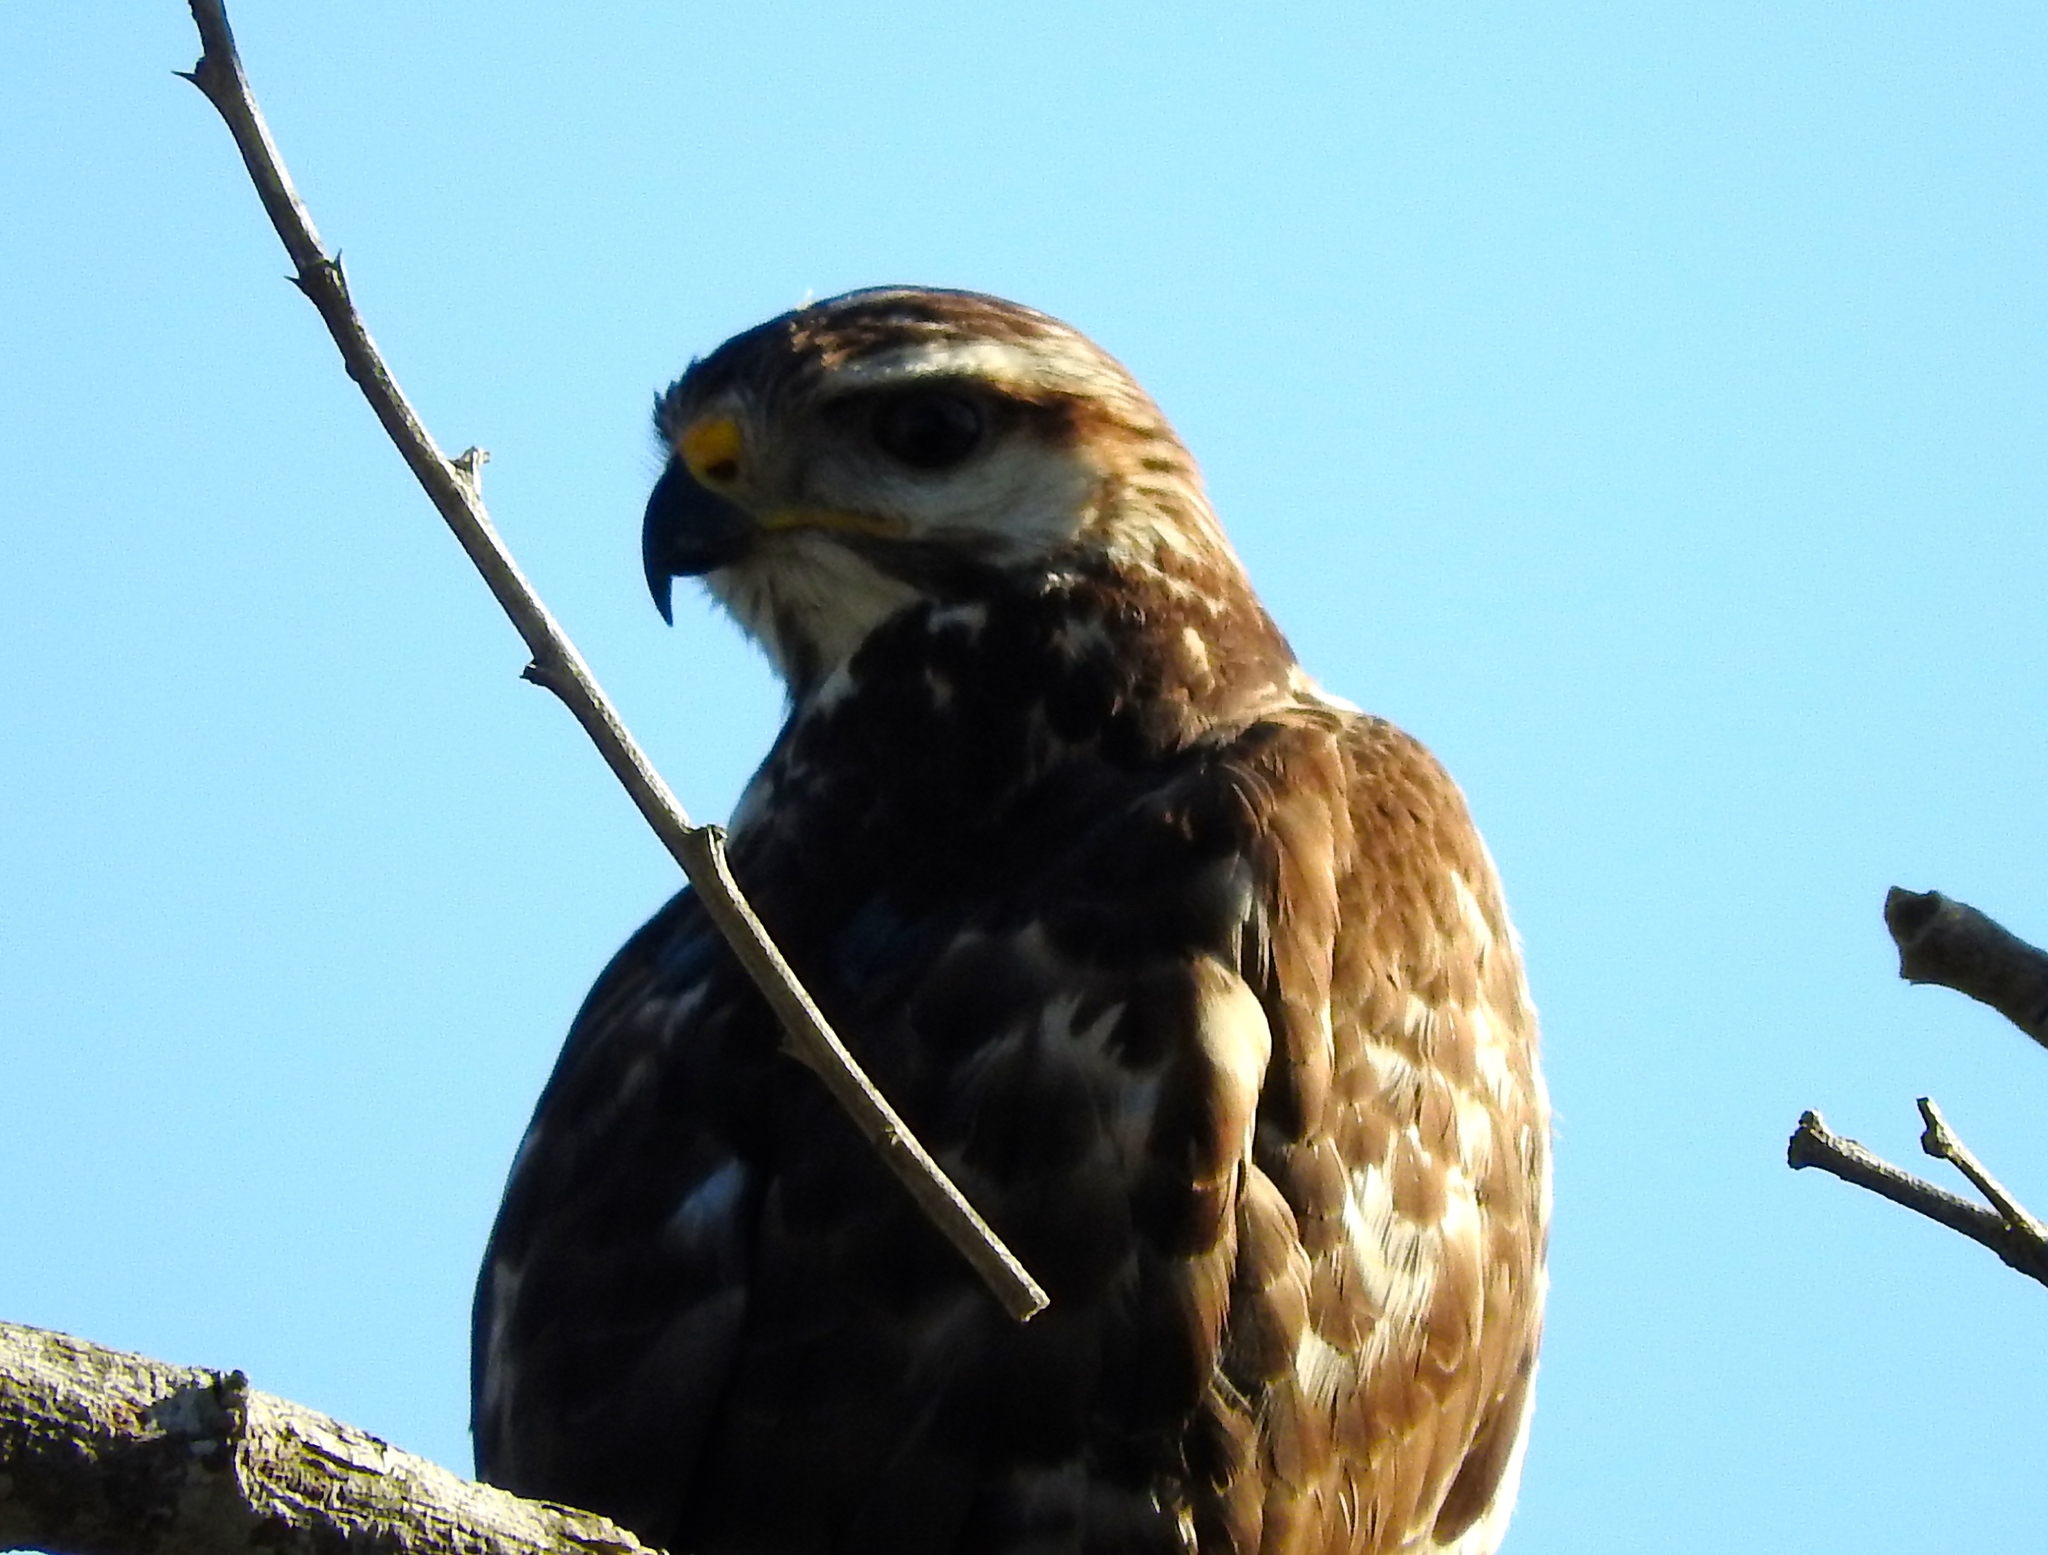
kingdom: Animalia
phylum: Chordata
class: Aves
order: Accipitriformes
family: Accipitridae
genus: Buteo
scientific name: Buteo nitidus
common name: Grey-lined hawk
